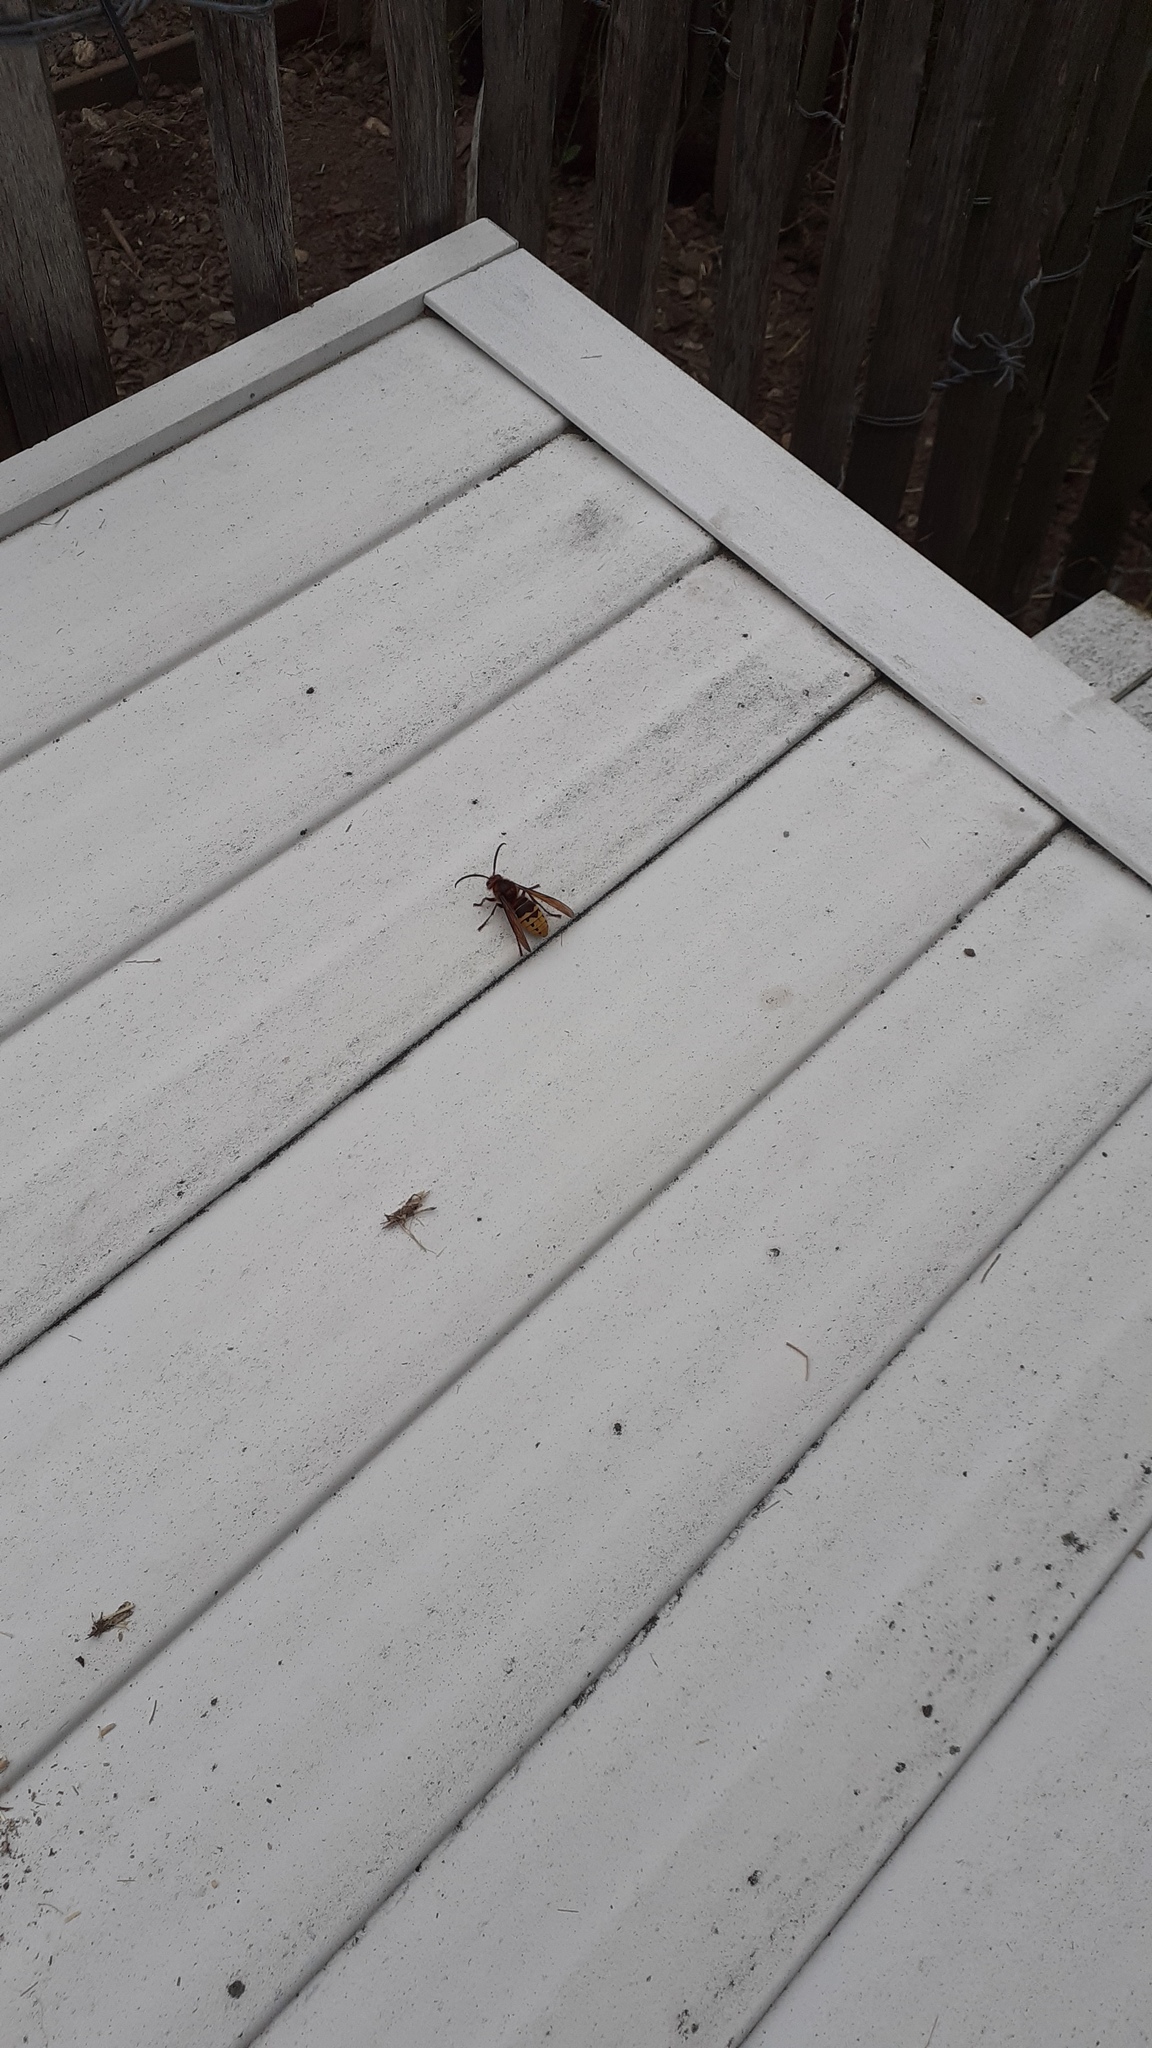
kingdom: Animalia
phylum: Arthropoda
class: Insecta
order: Hymenoptera
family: Vespidae
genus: Vespa
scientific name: Vespa crabro
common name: Hornet
